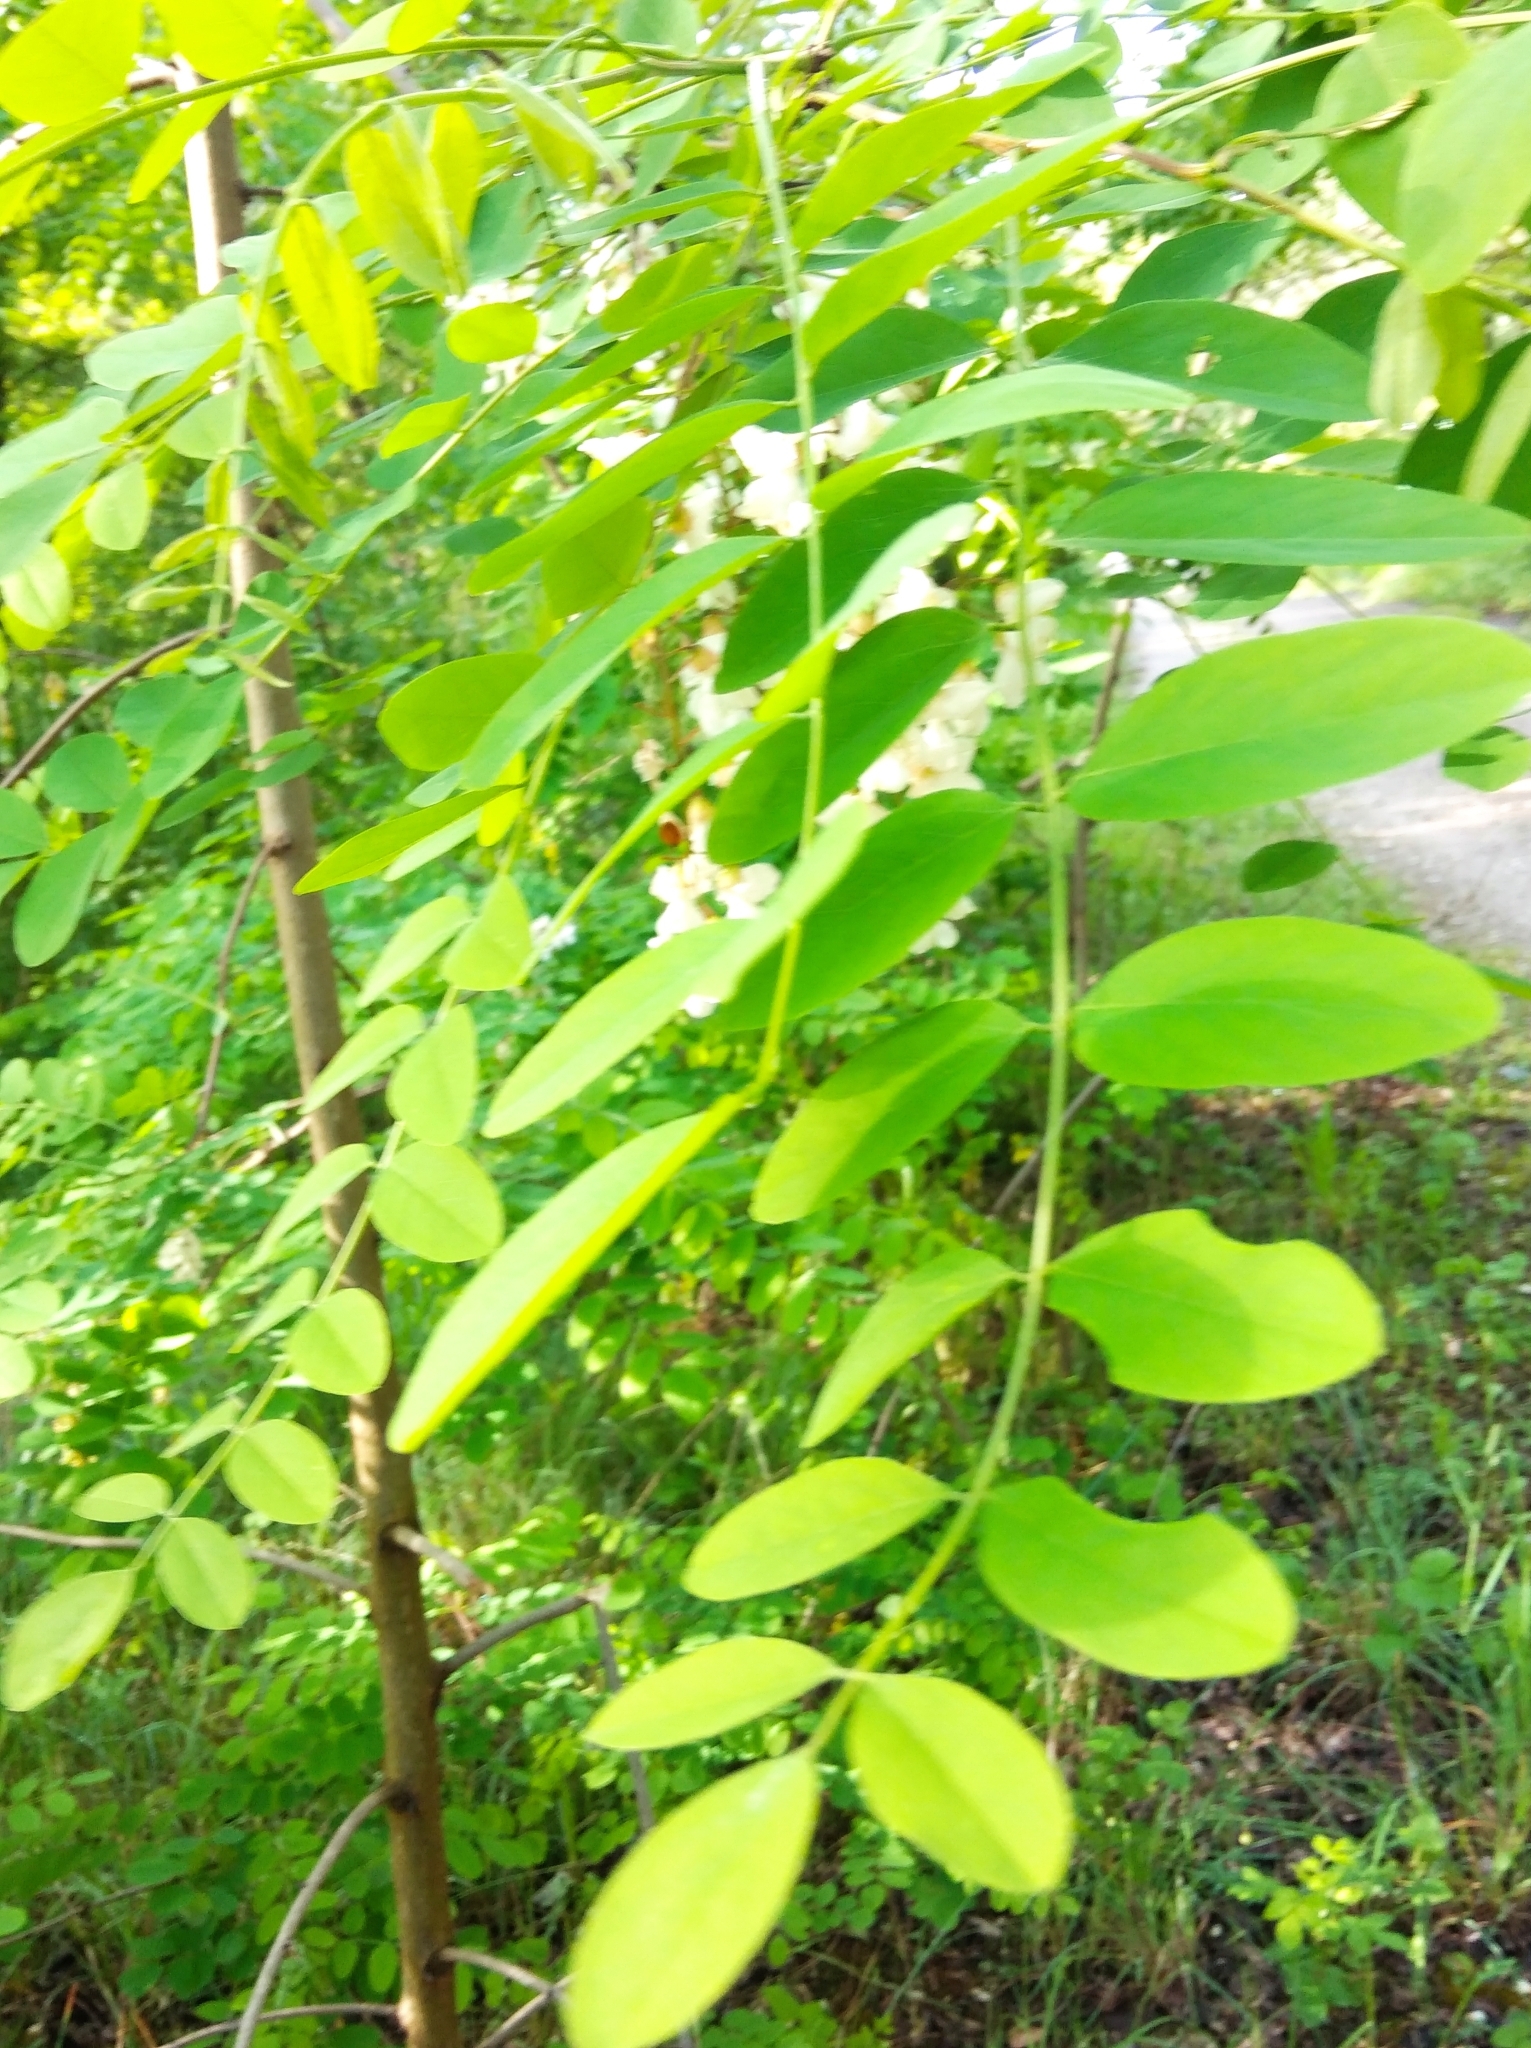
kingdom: Plantae
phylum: Tracheophyta
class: Magnoliopsida
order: Fabales
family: Fabaceae
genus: Robinia
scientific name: Robinia pseudoacacia
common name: Black locust
